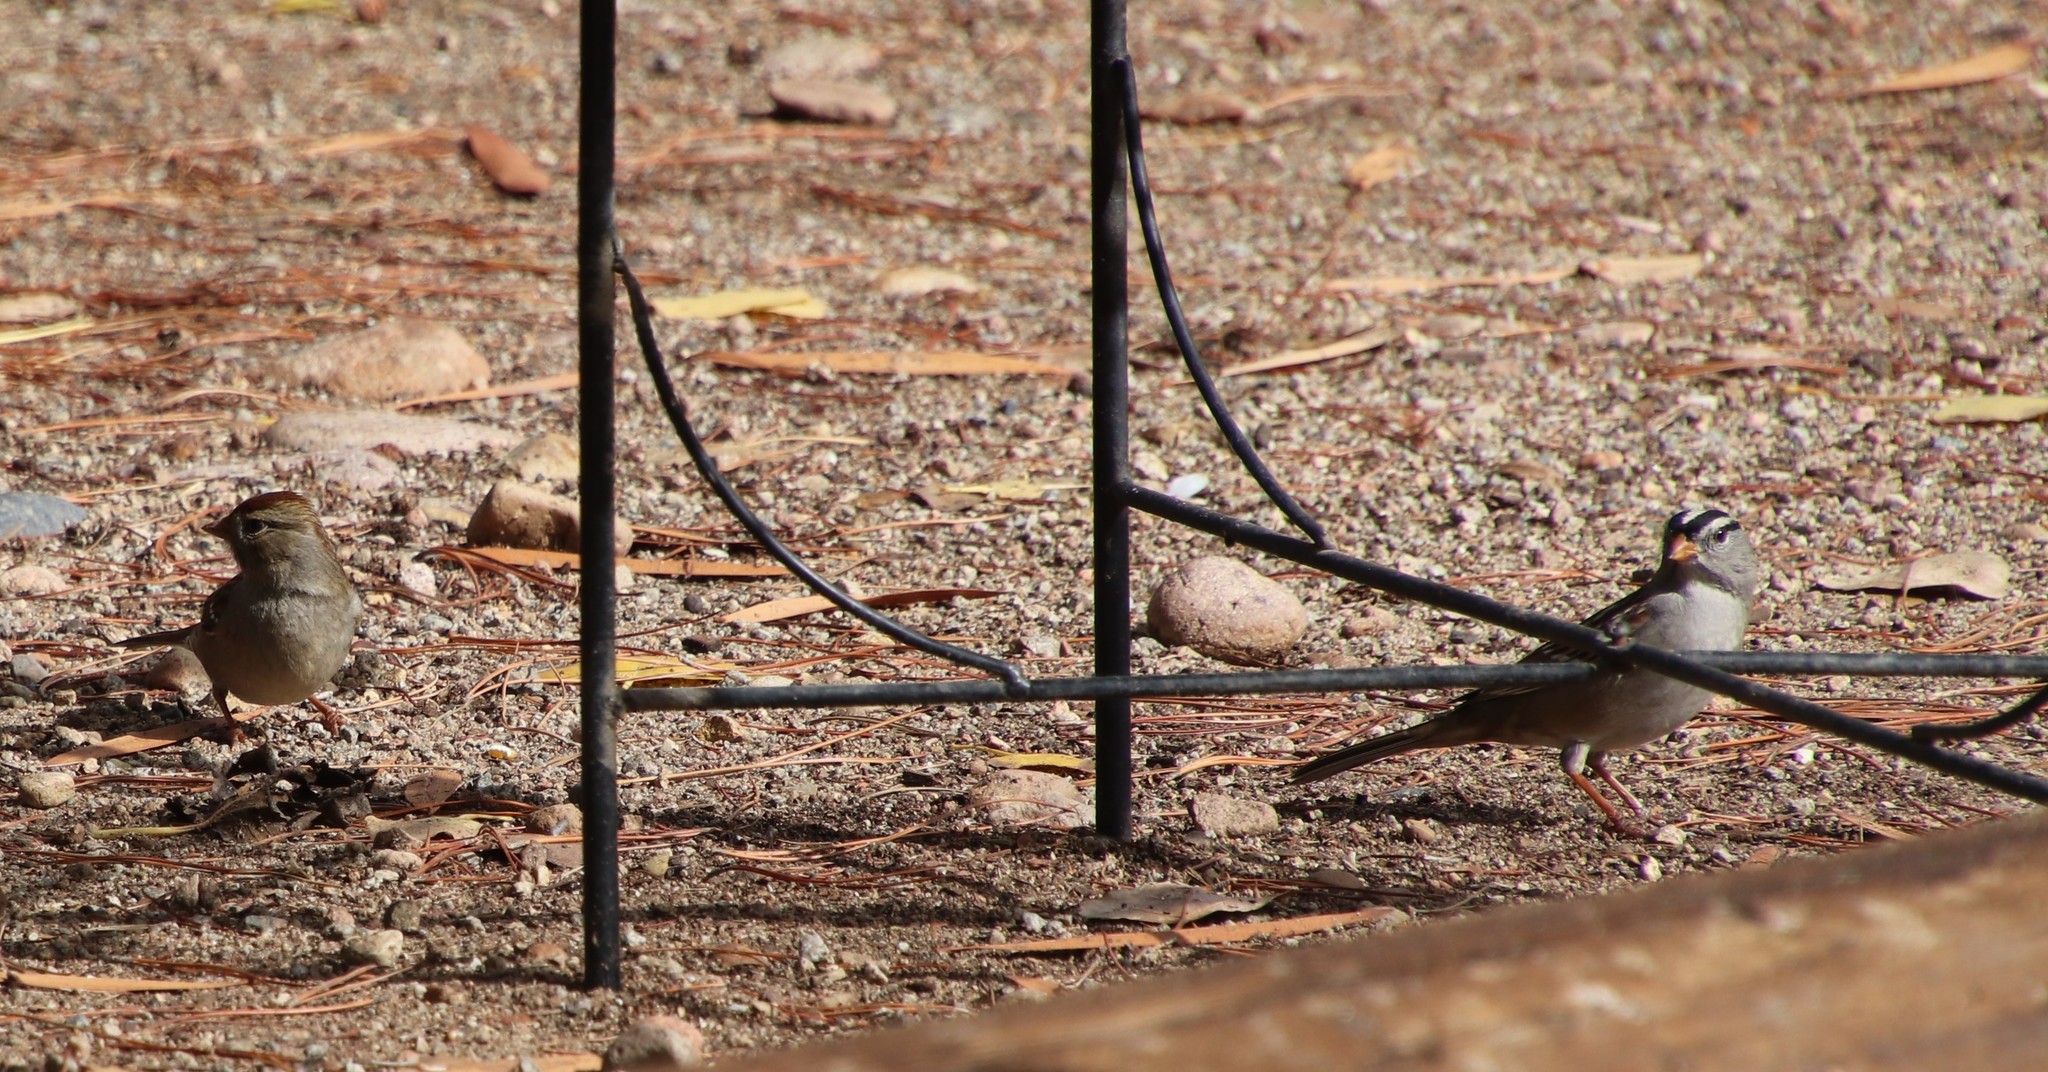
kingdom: Animalia
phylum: Chordata
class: Aves
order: Passeriformes
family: Passerellidae
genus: Zonotrichia
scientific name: Zonotrichia leucophrys
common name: White-crowned sparrow
